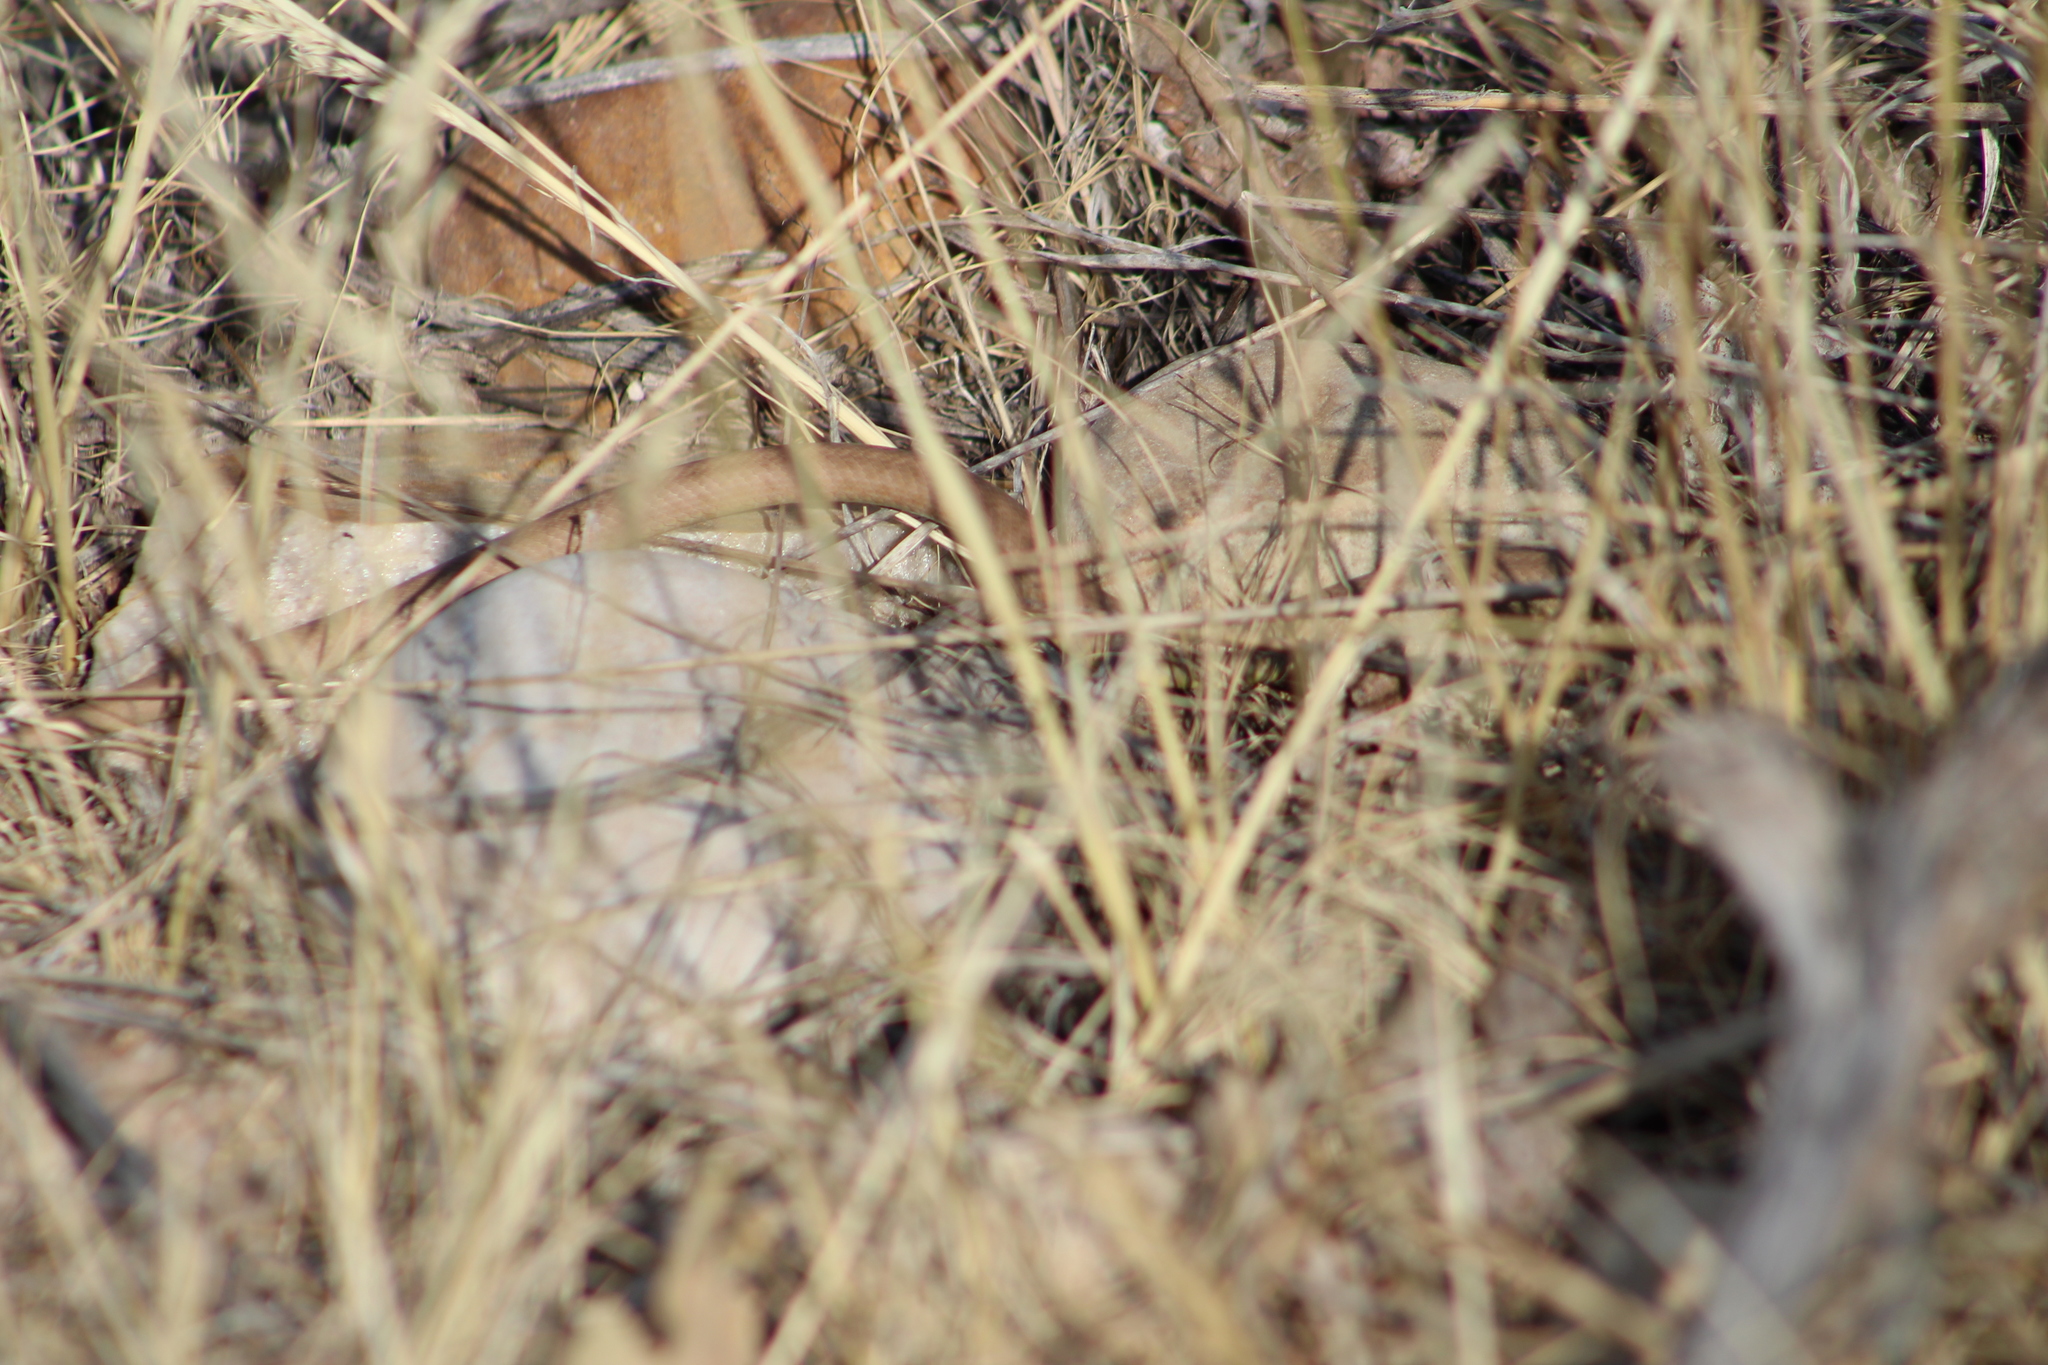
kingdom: Animalia
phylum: Chordata
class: Squamata
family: Colubridae
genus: Coluber
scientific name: Coluber constrictor
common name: Eastern racer
